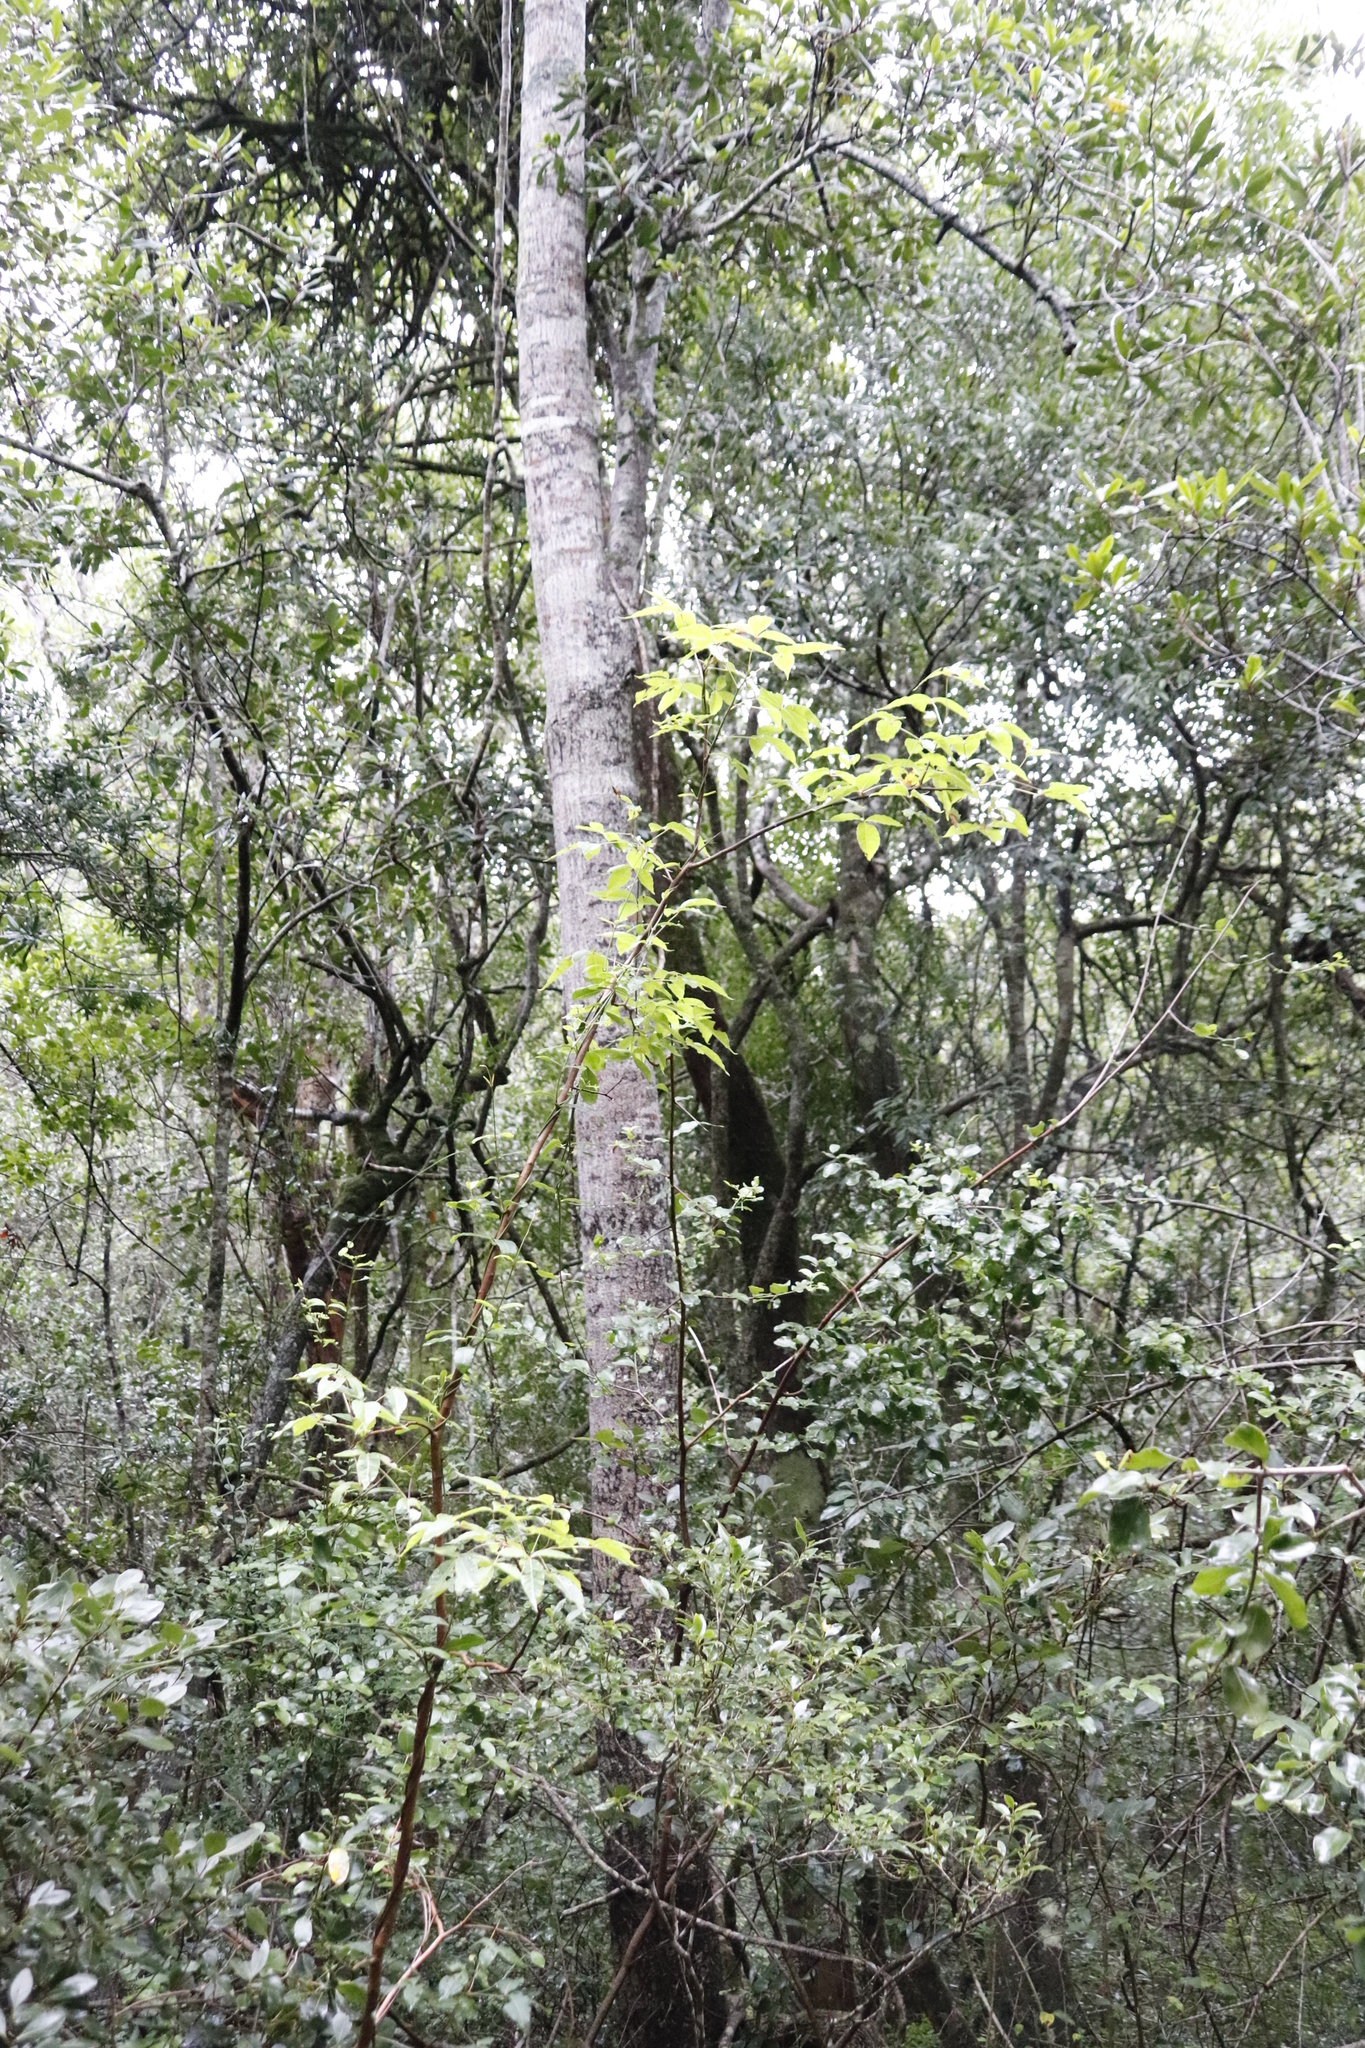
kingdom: Plantae
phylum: Tracheophyta
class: Magnoliopsida
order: Sapindales
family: Anacardiaceae
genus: Searsia
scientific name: Searsia chirindensis
